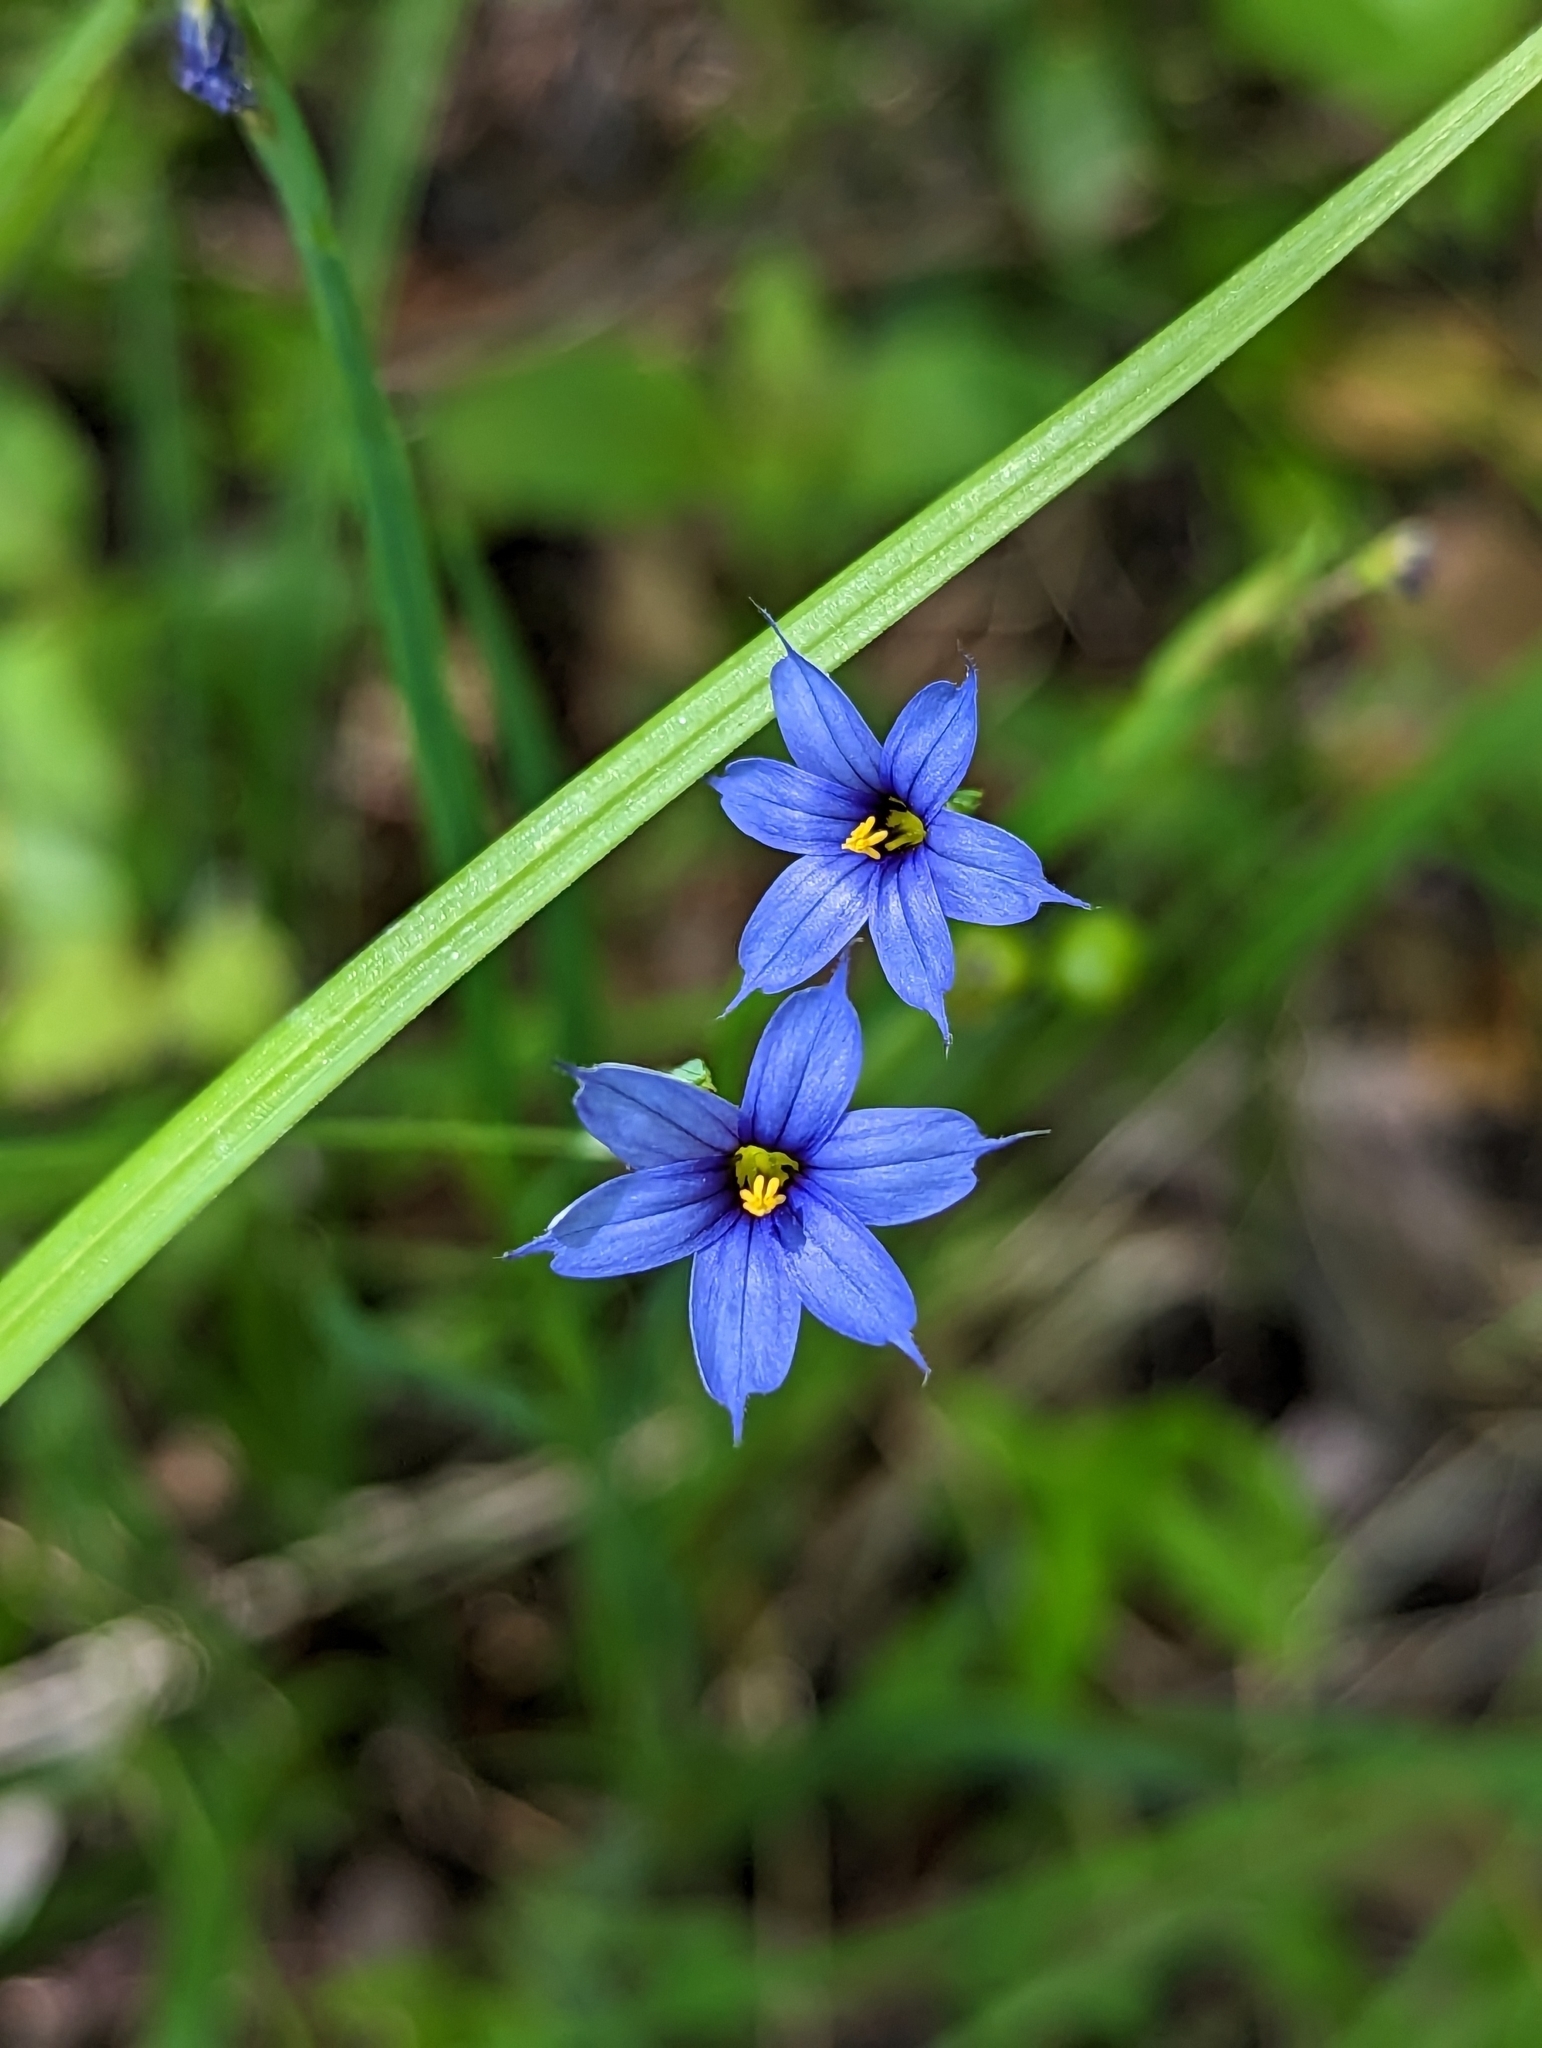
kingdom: Plantae
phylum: Tracheophyta
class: Liliopsida
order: Asparagales
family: Iridaceae
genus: Sisyrinchium
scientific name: Sisyrinchium angustifolium
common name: Narrow-leaf blue-eyed-grass
